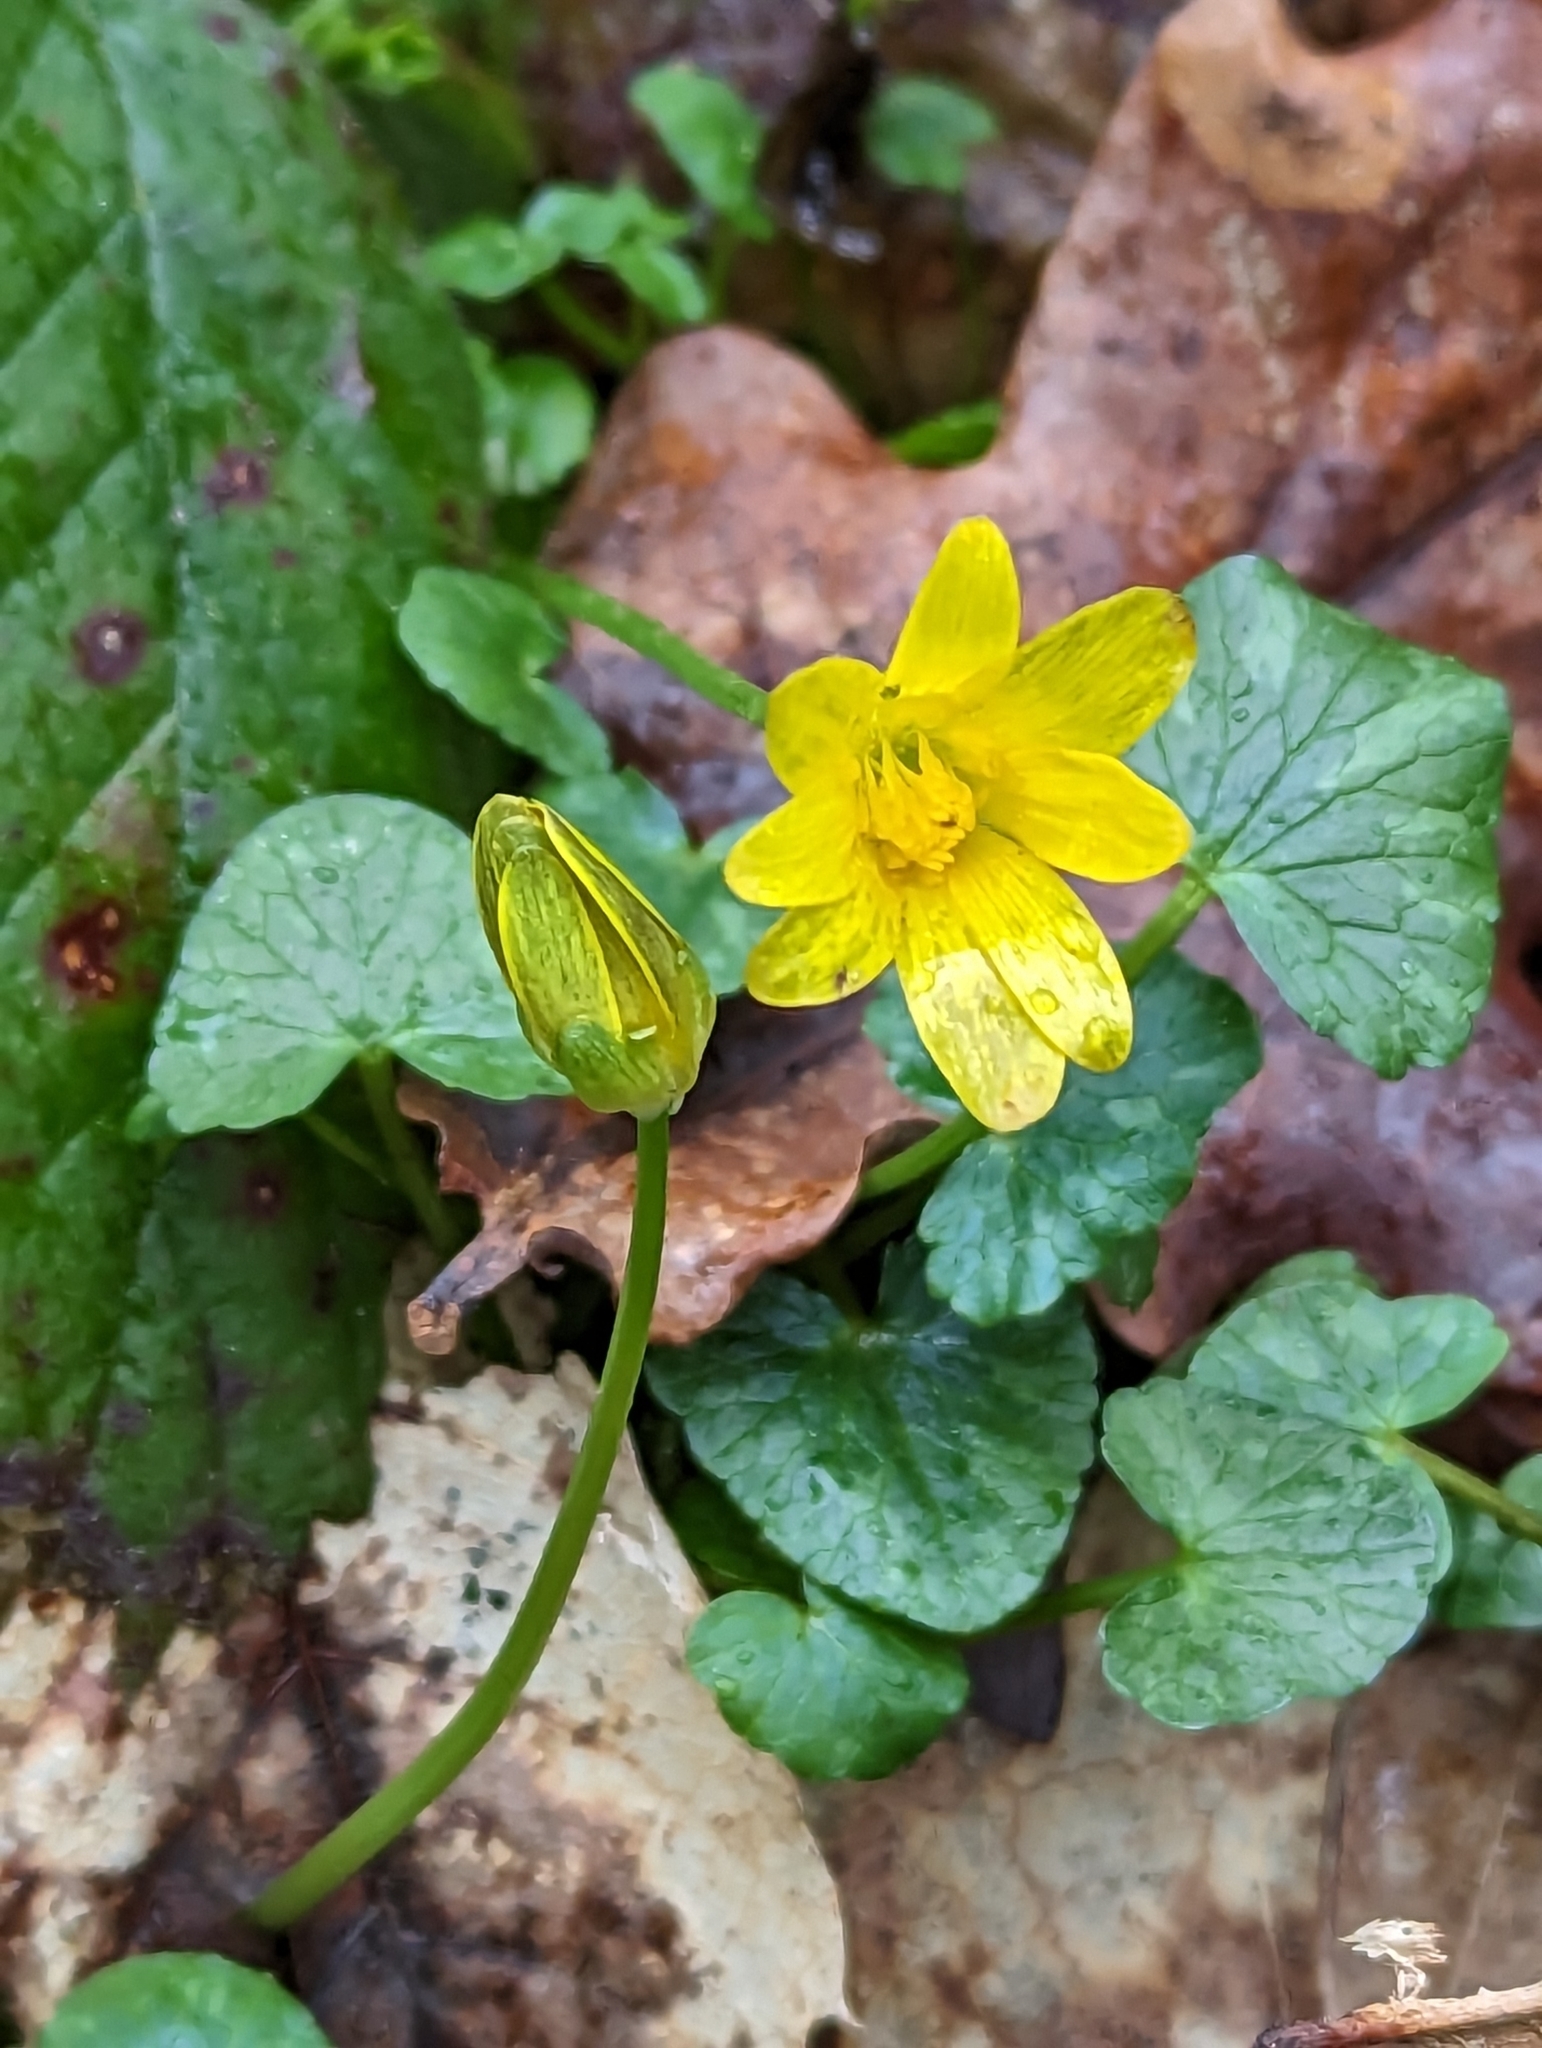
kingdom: Plantae
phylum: Tracheophyta
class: Magnoliopsida
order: Ranunculales
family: Ranunculaceae
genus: Ficaria
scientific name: Ficaria verna
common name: Lesser celandine
